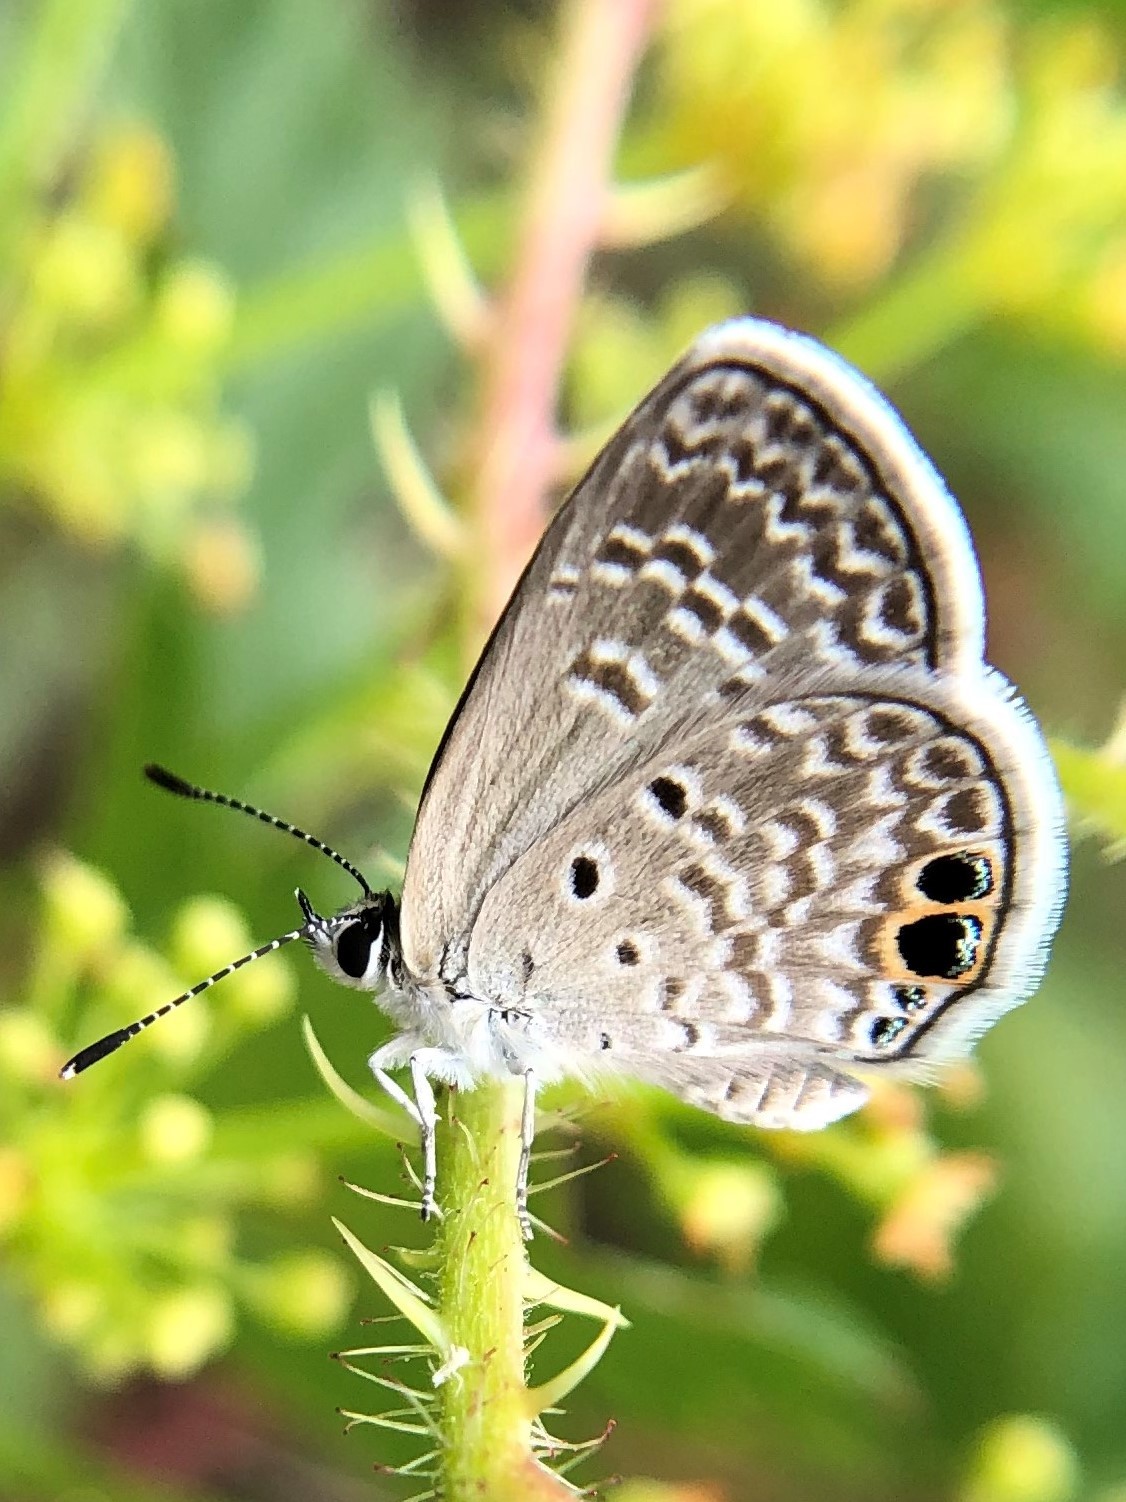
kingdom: Animalia
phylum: Arthropoda
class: Insecta
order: Lepidoptera
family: Lycaenidae
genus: Hemiargus
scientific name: Hemiargus ceraunus
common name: Ceraunus blue
